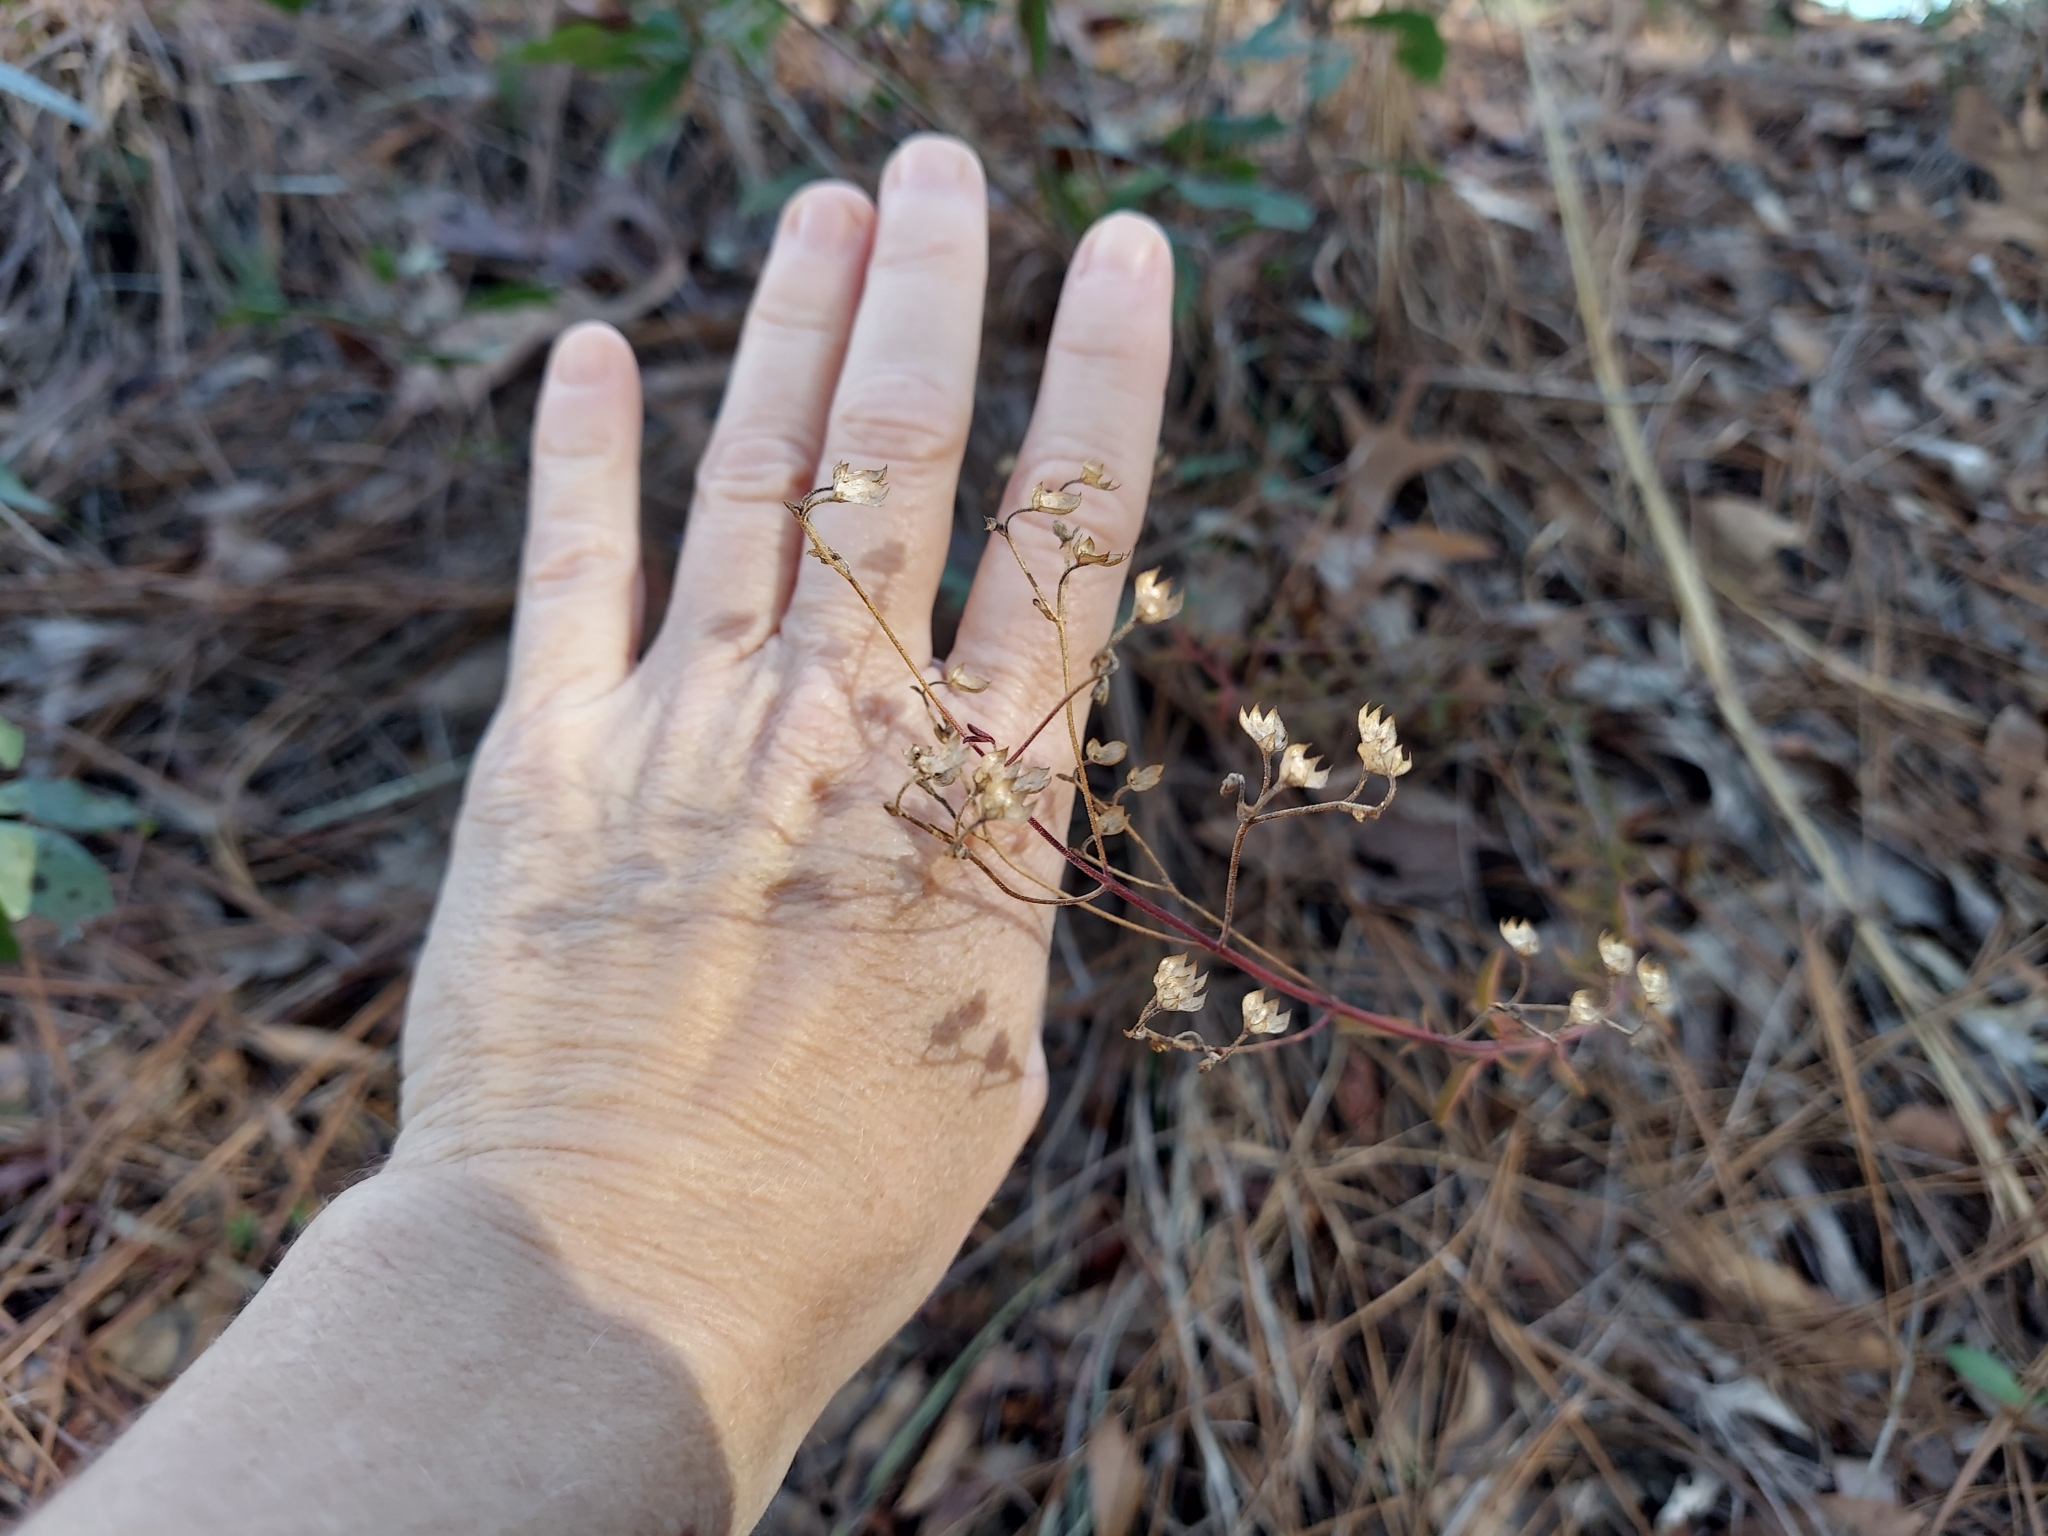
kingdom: Plantae
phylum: Tracheophyta
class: Magnoliopsida
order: Lamiales
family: Lamiaceae
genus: Trichostema
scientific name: Trichostema microphyllum
